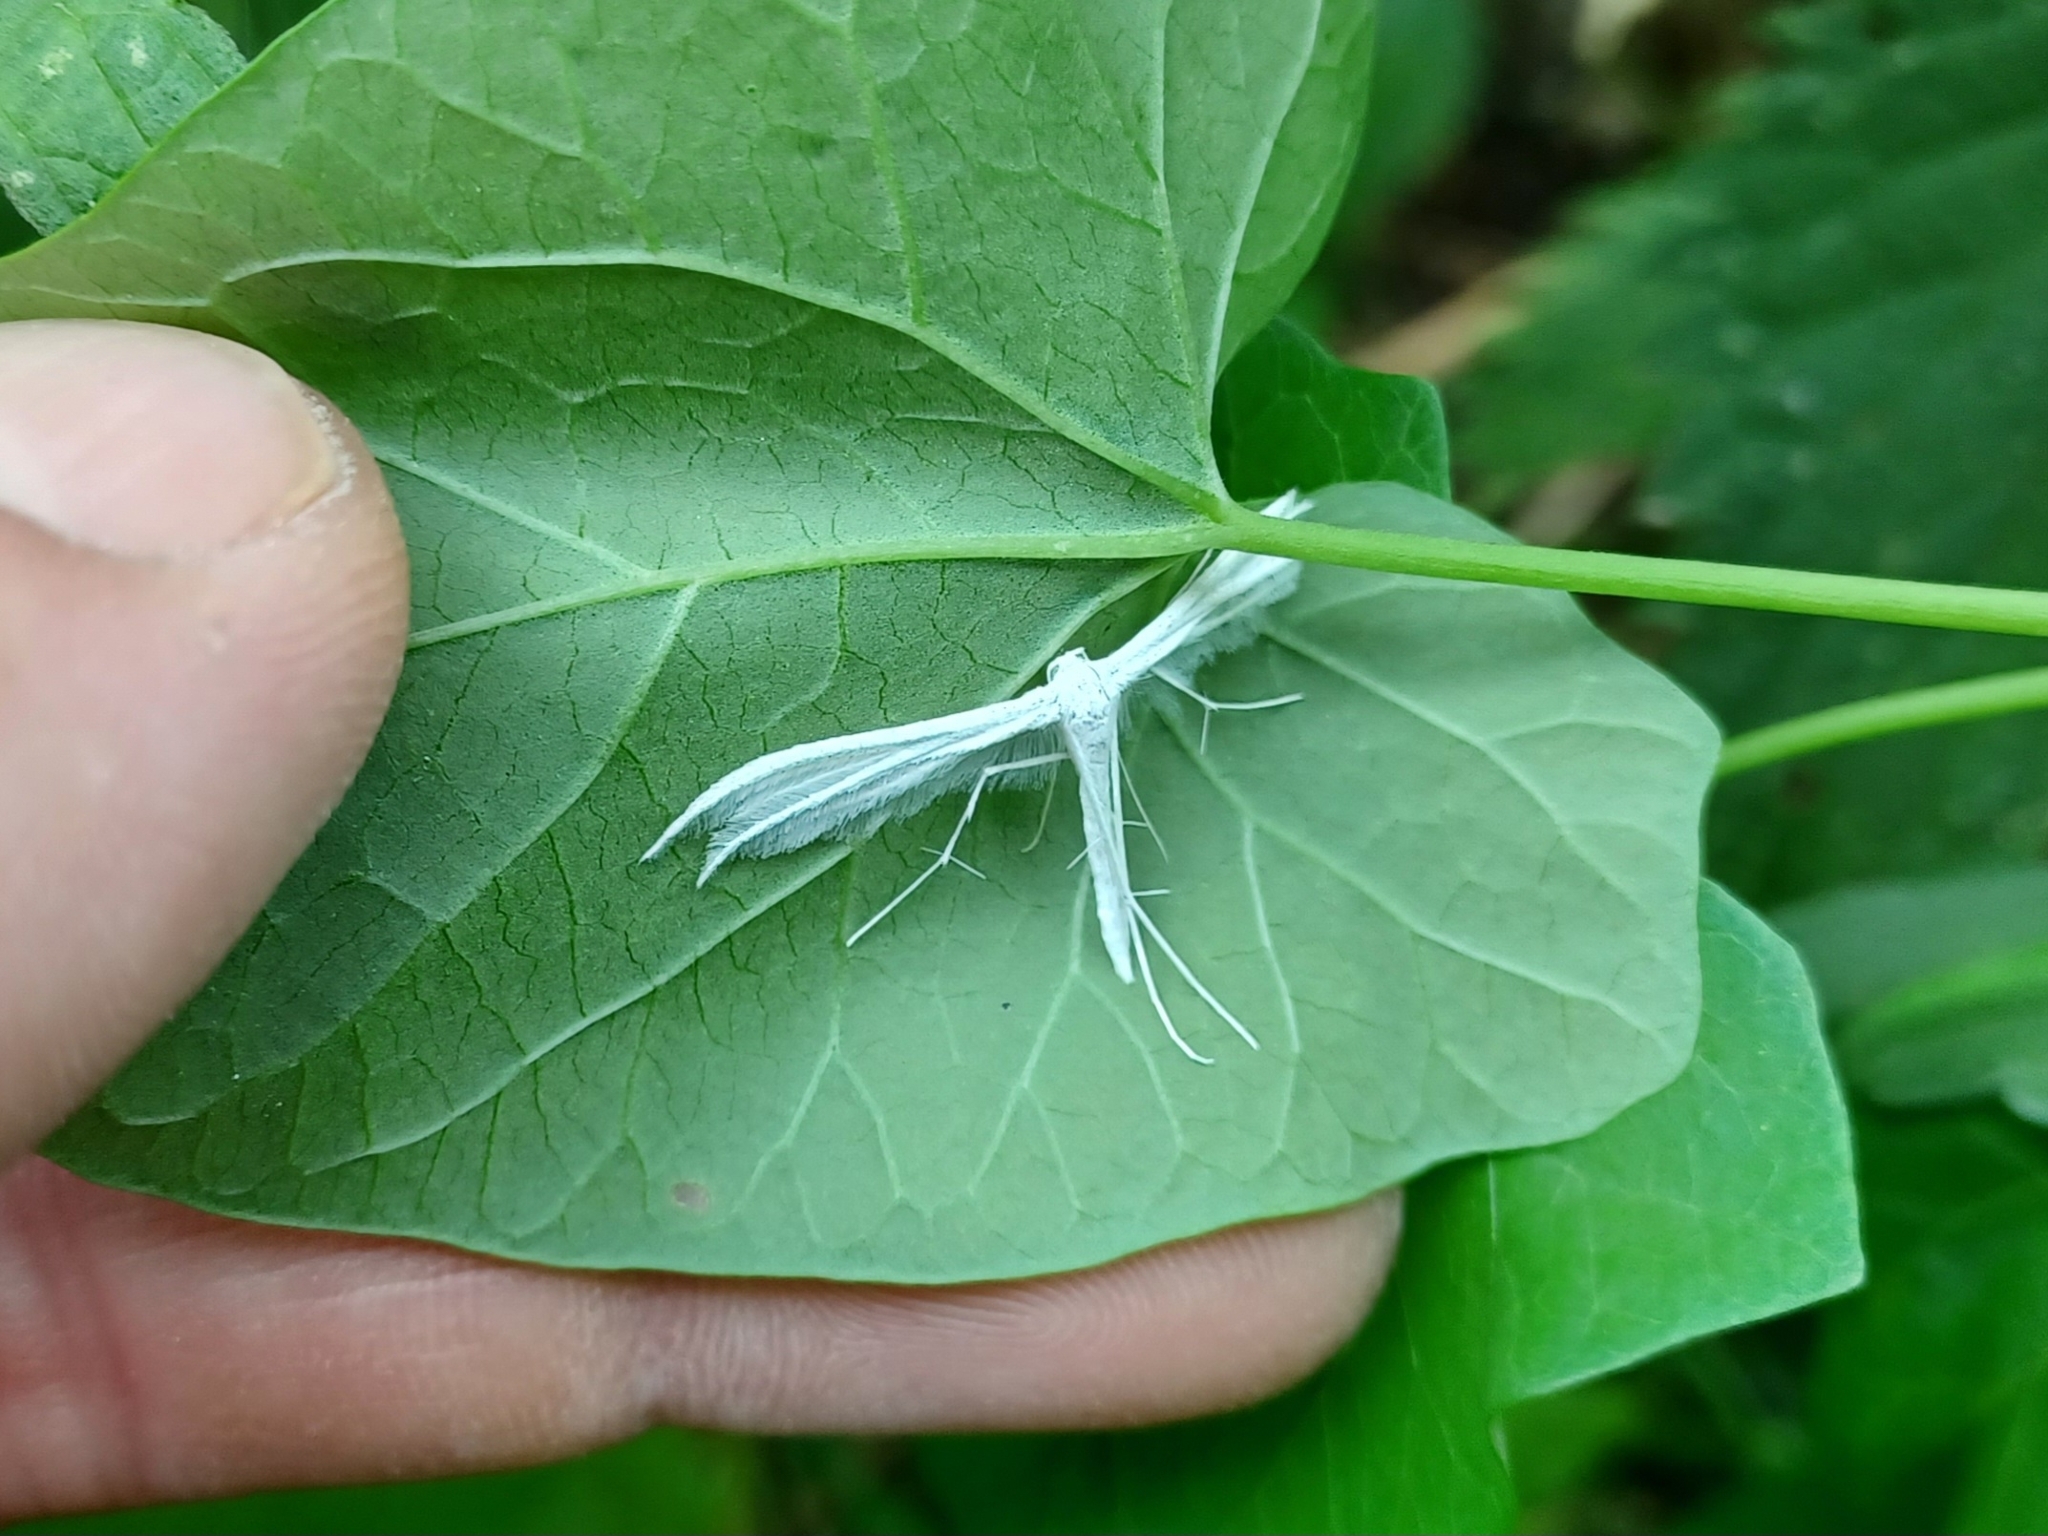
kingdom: Animalia
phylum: Arthropoda
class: Insecta
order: Lepidoptera
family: Pterophoridae
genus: Pterophorus
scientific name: Pterophorus pentadactyla
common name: White plume moth
